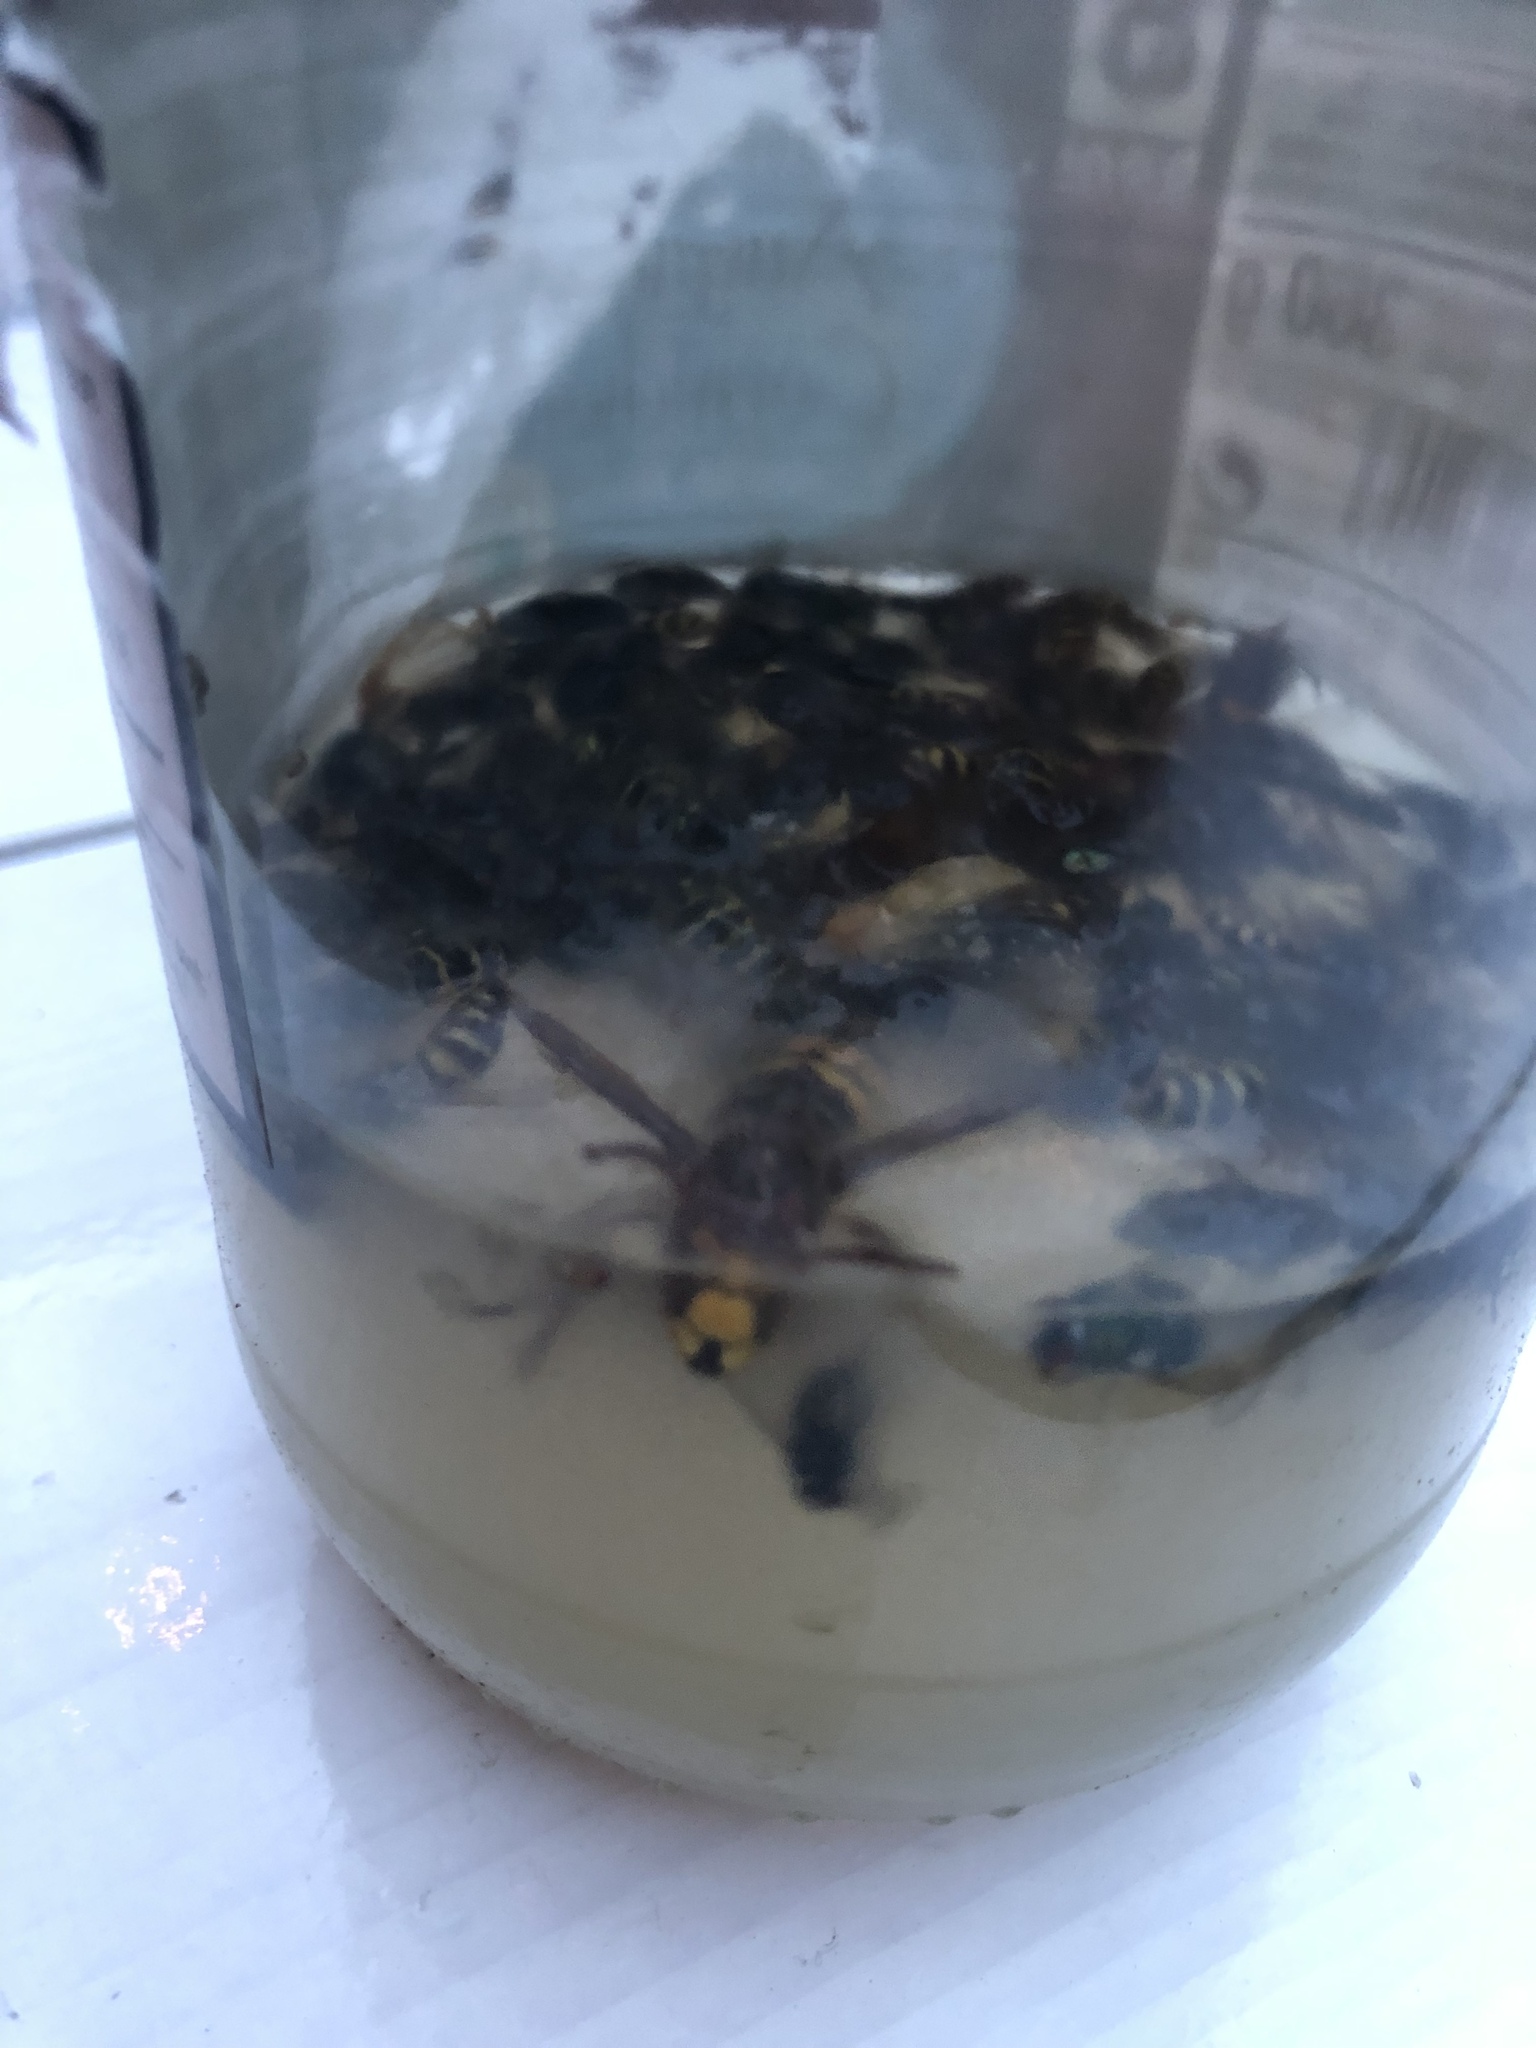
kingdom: Animalia
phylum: Arthropoda
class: Insecta
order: Hymenoptera
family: Vespidae
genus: Vespa
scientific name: Vespa crabro
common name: Hornet
